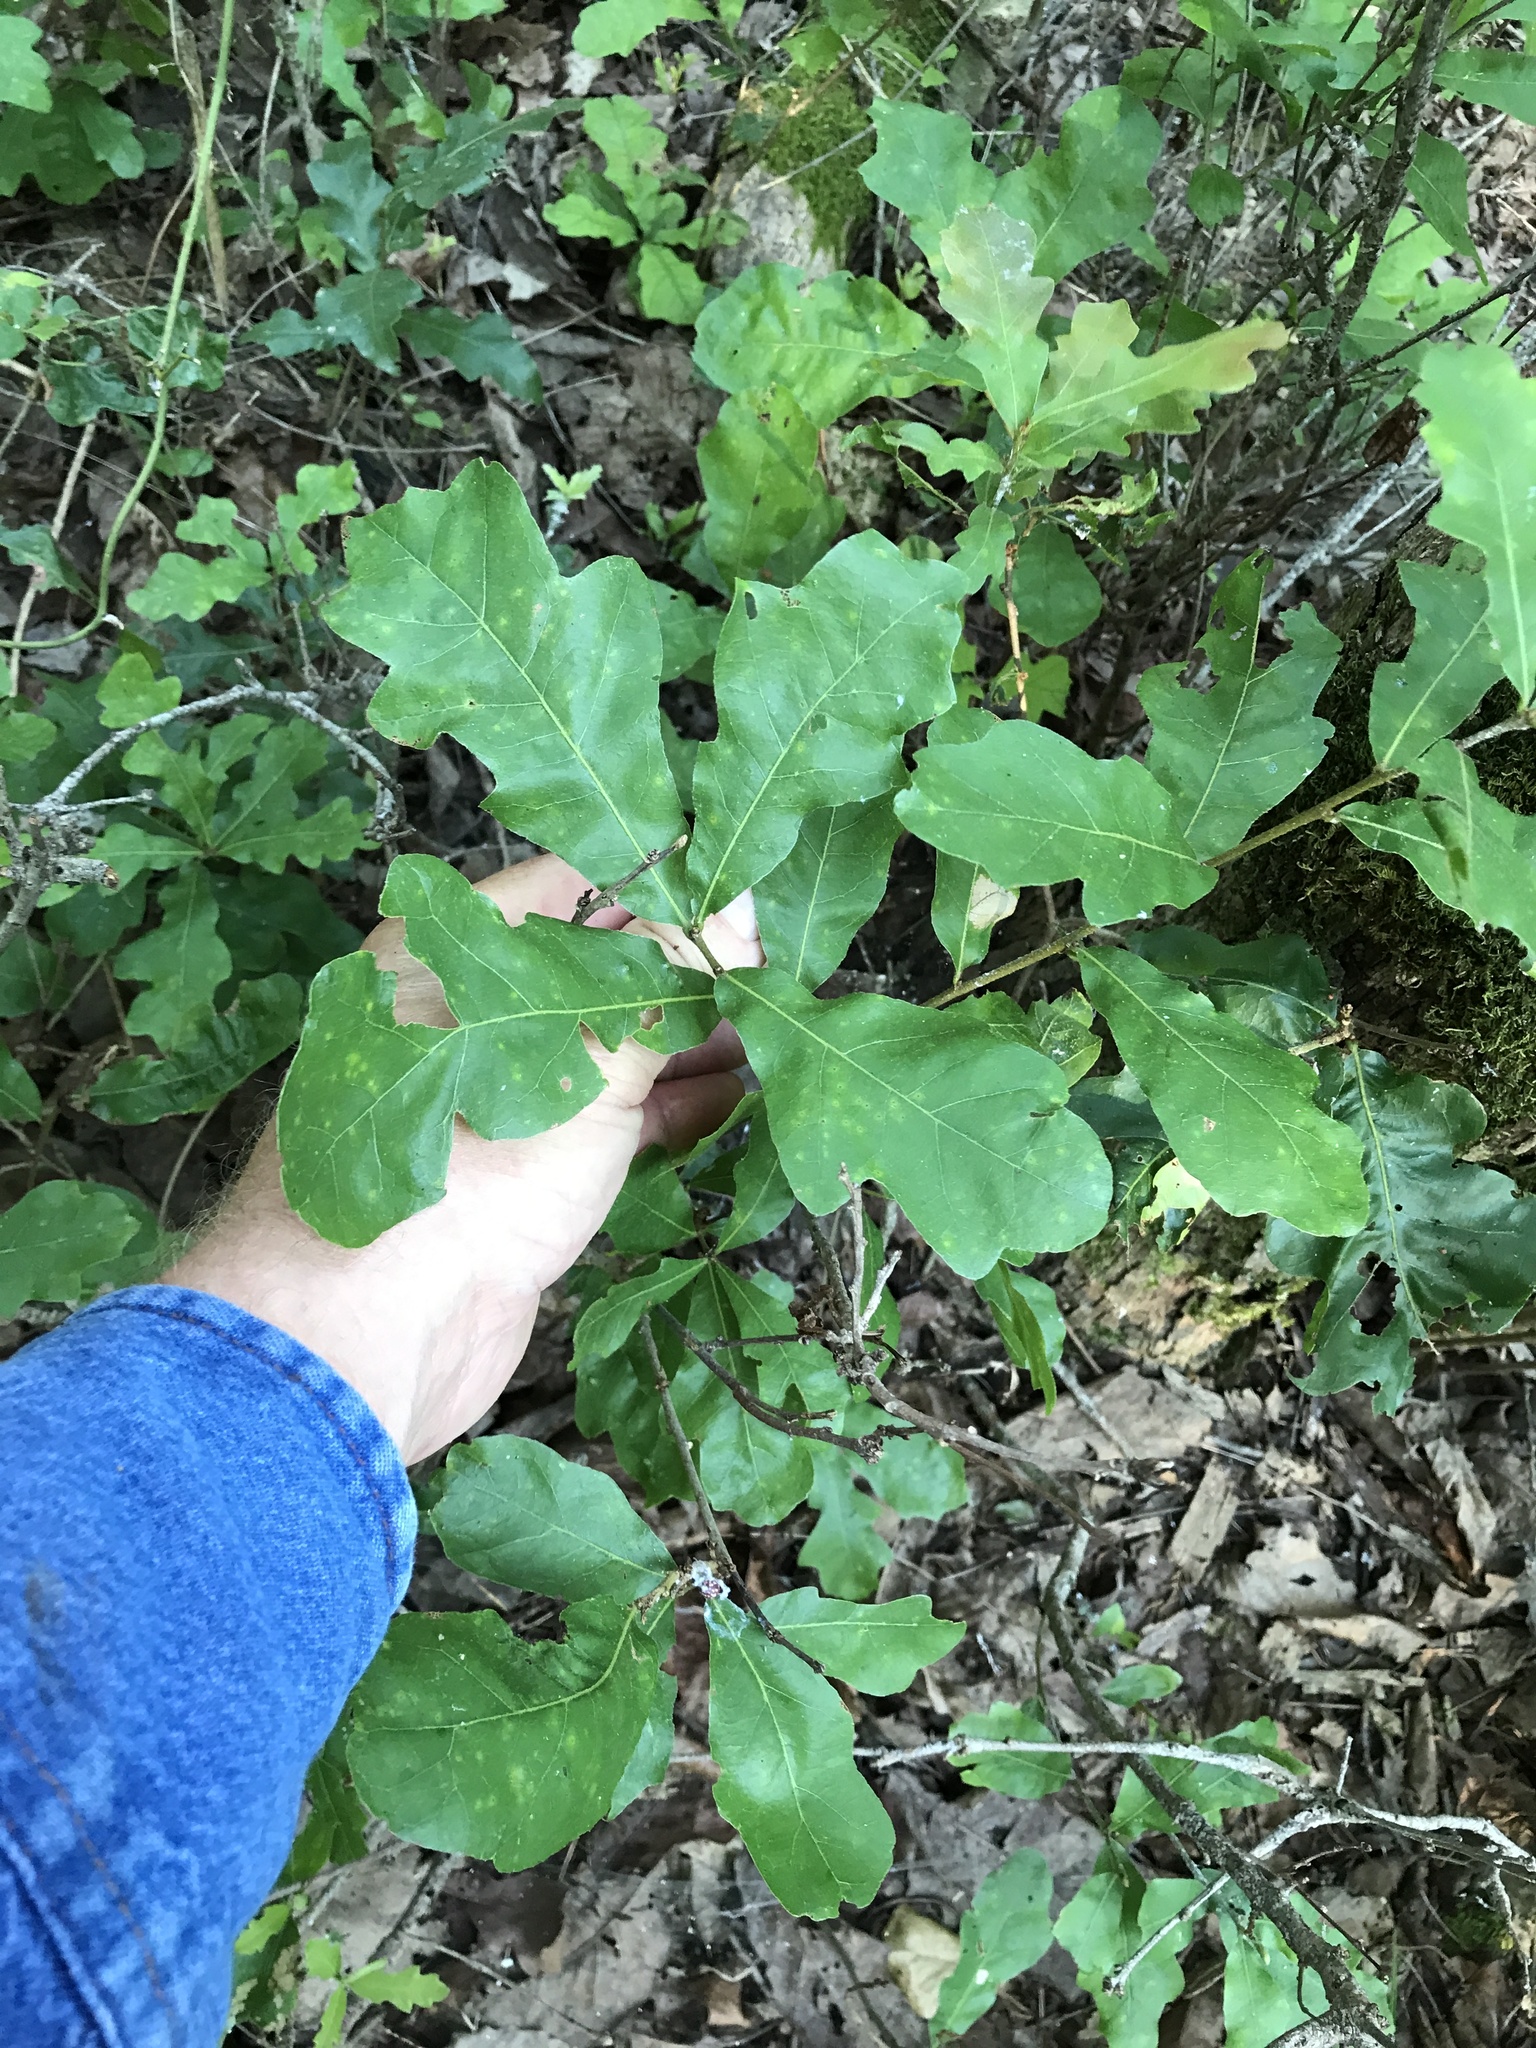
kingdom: Plantae
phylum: Tracheophyta
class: Magnoliopsida
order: Fagales
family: Fagaceae
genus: Quercus
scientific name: Quercus sinuata
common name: Durand oak
